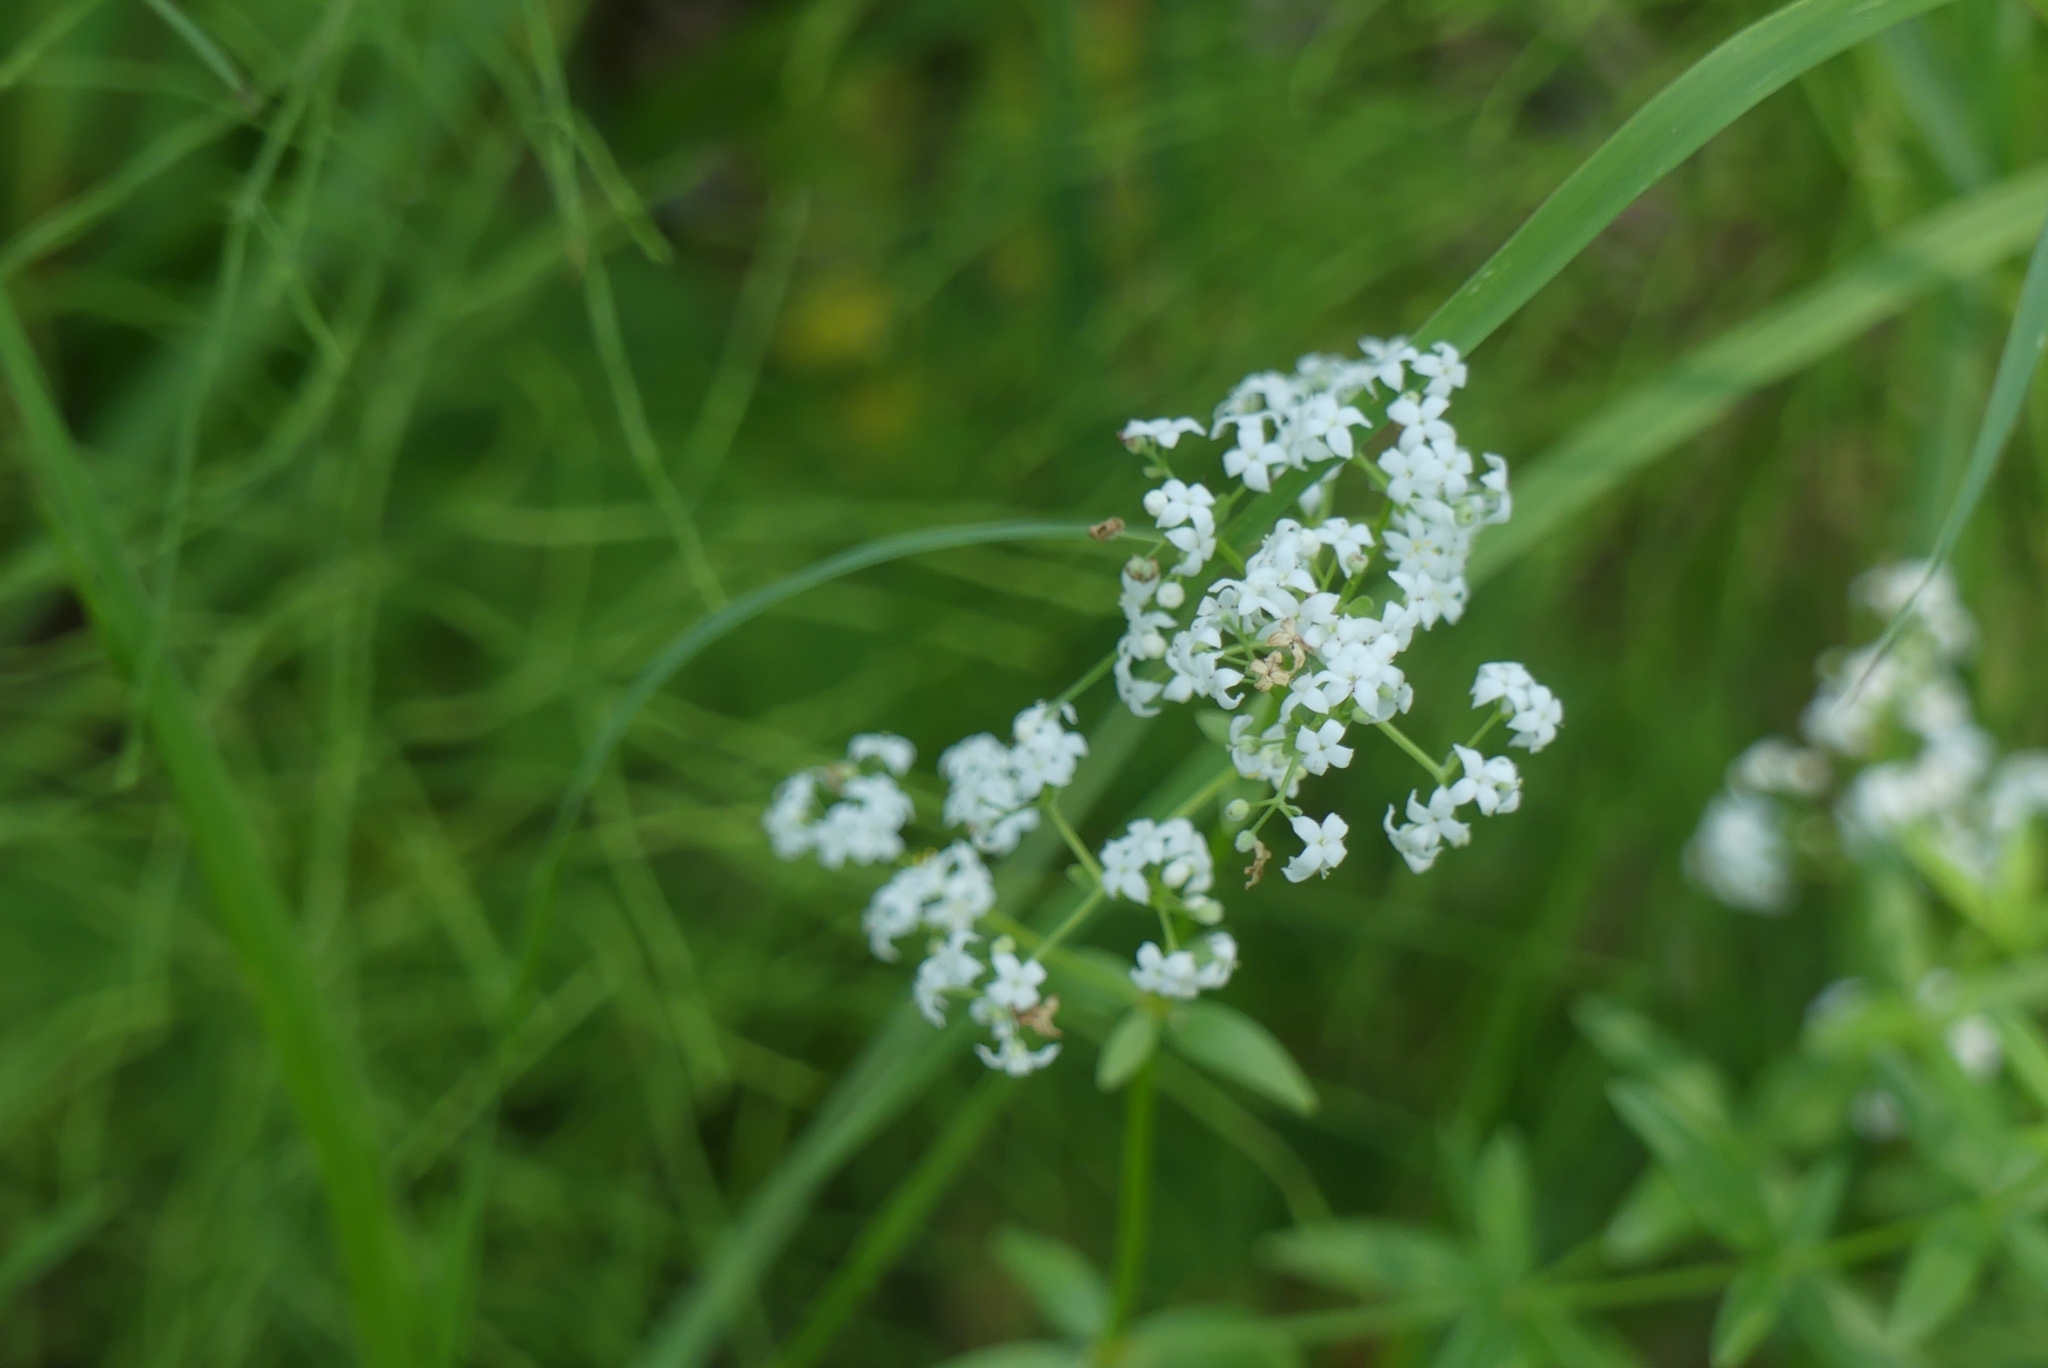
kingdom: Plantae
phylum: Tracheophyta
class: Magnoliopsida
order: Gentianales
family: Rubiaceae
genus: Galium
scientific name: Galium boreale
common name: Northern bedstraw
